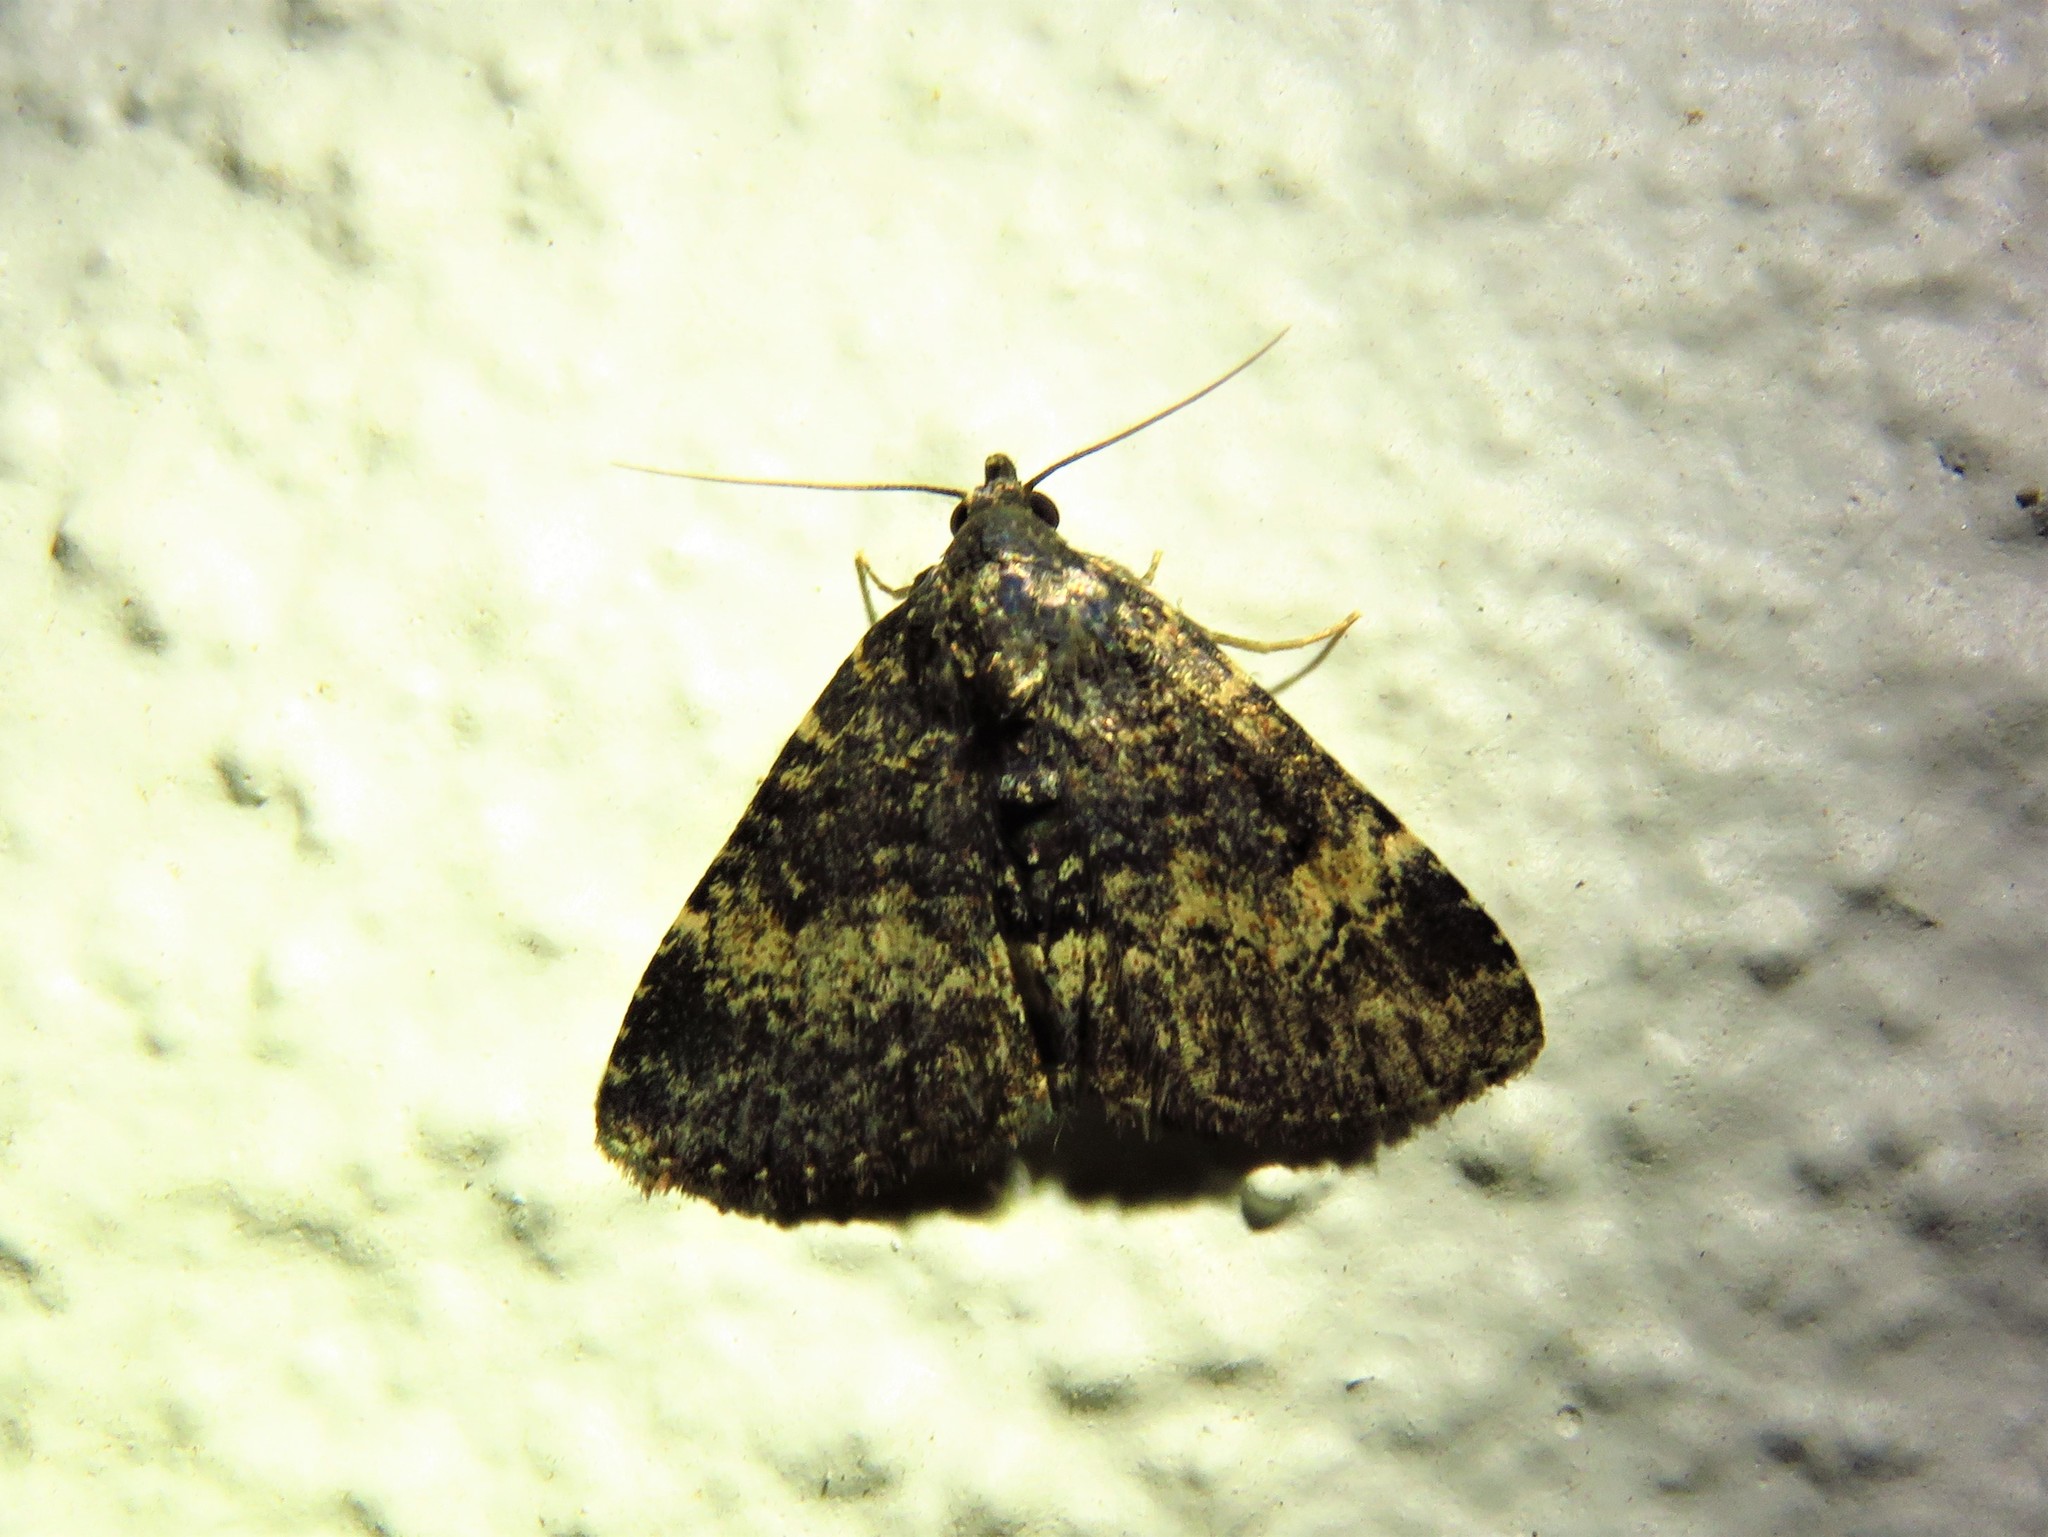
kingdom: Animalia
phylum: Arthropoda
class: Insecta
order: Lepidoptera
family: Erebidae
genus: Metalectra
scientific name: Metalectra diabolica
